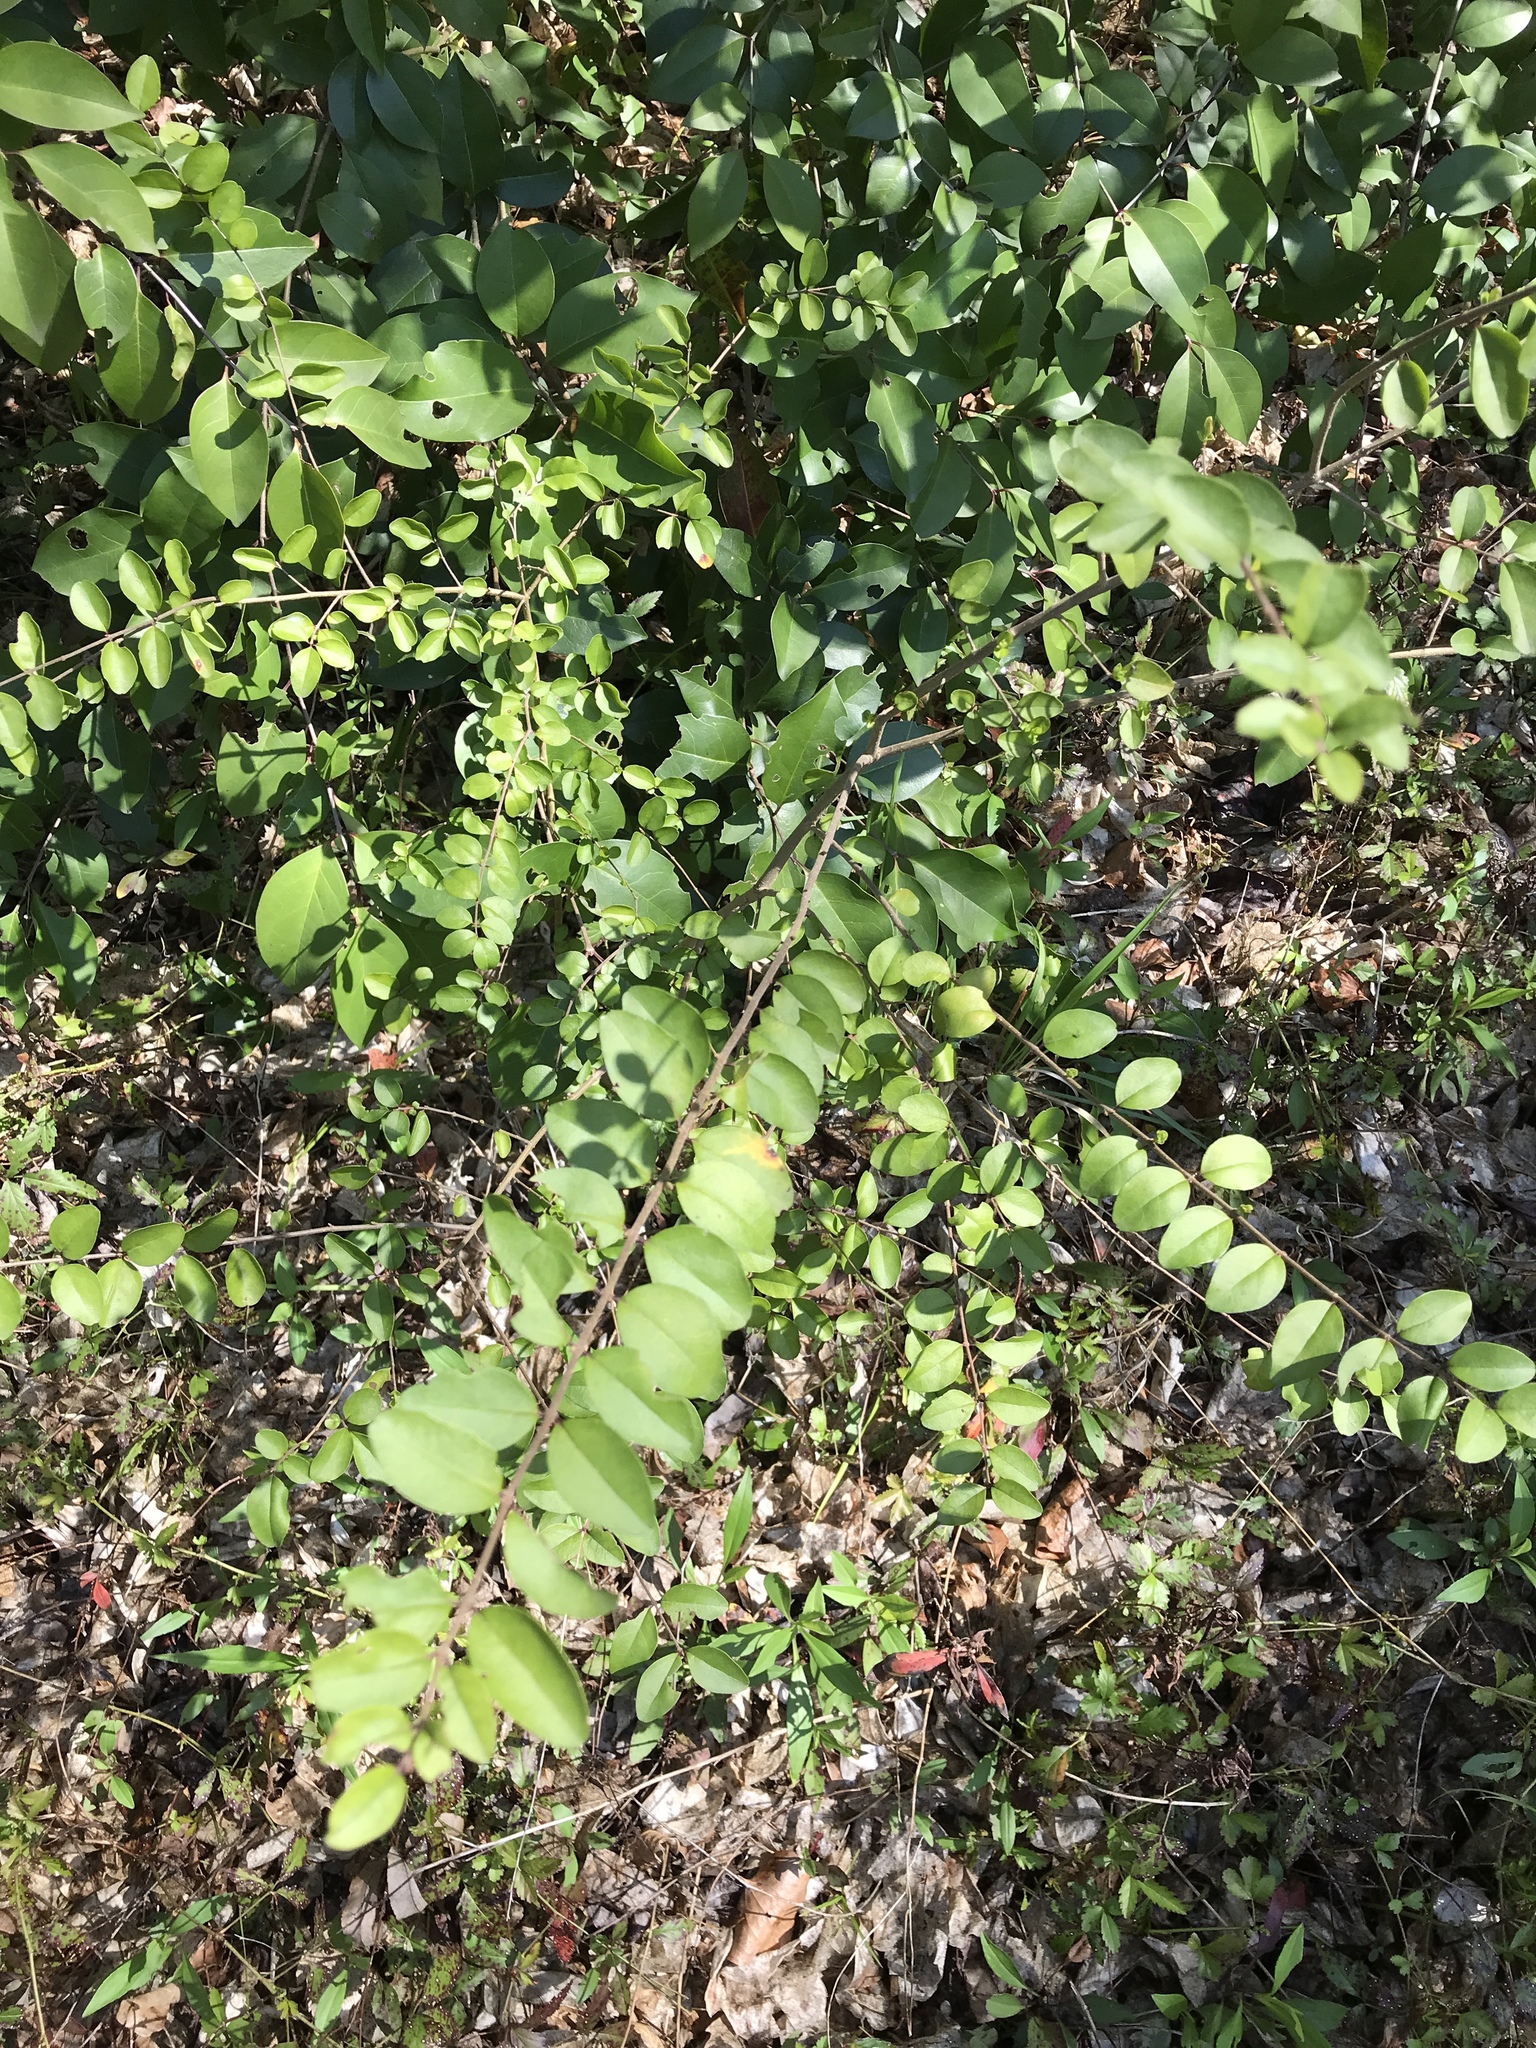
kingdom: Plantae
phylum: Tracheophyta
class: Magnoliopsida
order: Lamiales
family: Oleaceae
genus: Ligustrum
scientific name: Ligustrum sinense
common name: Chinese privet
